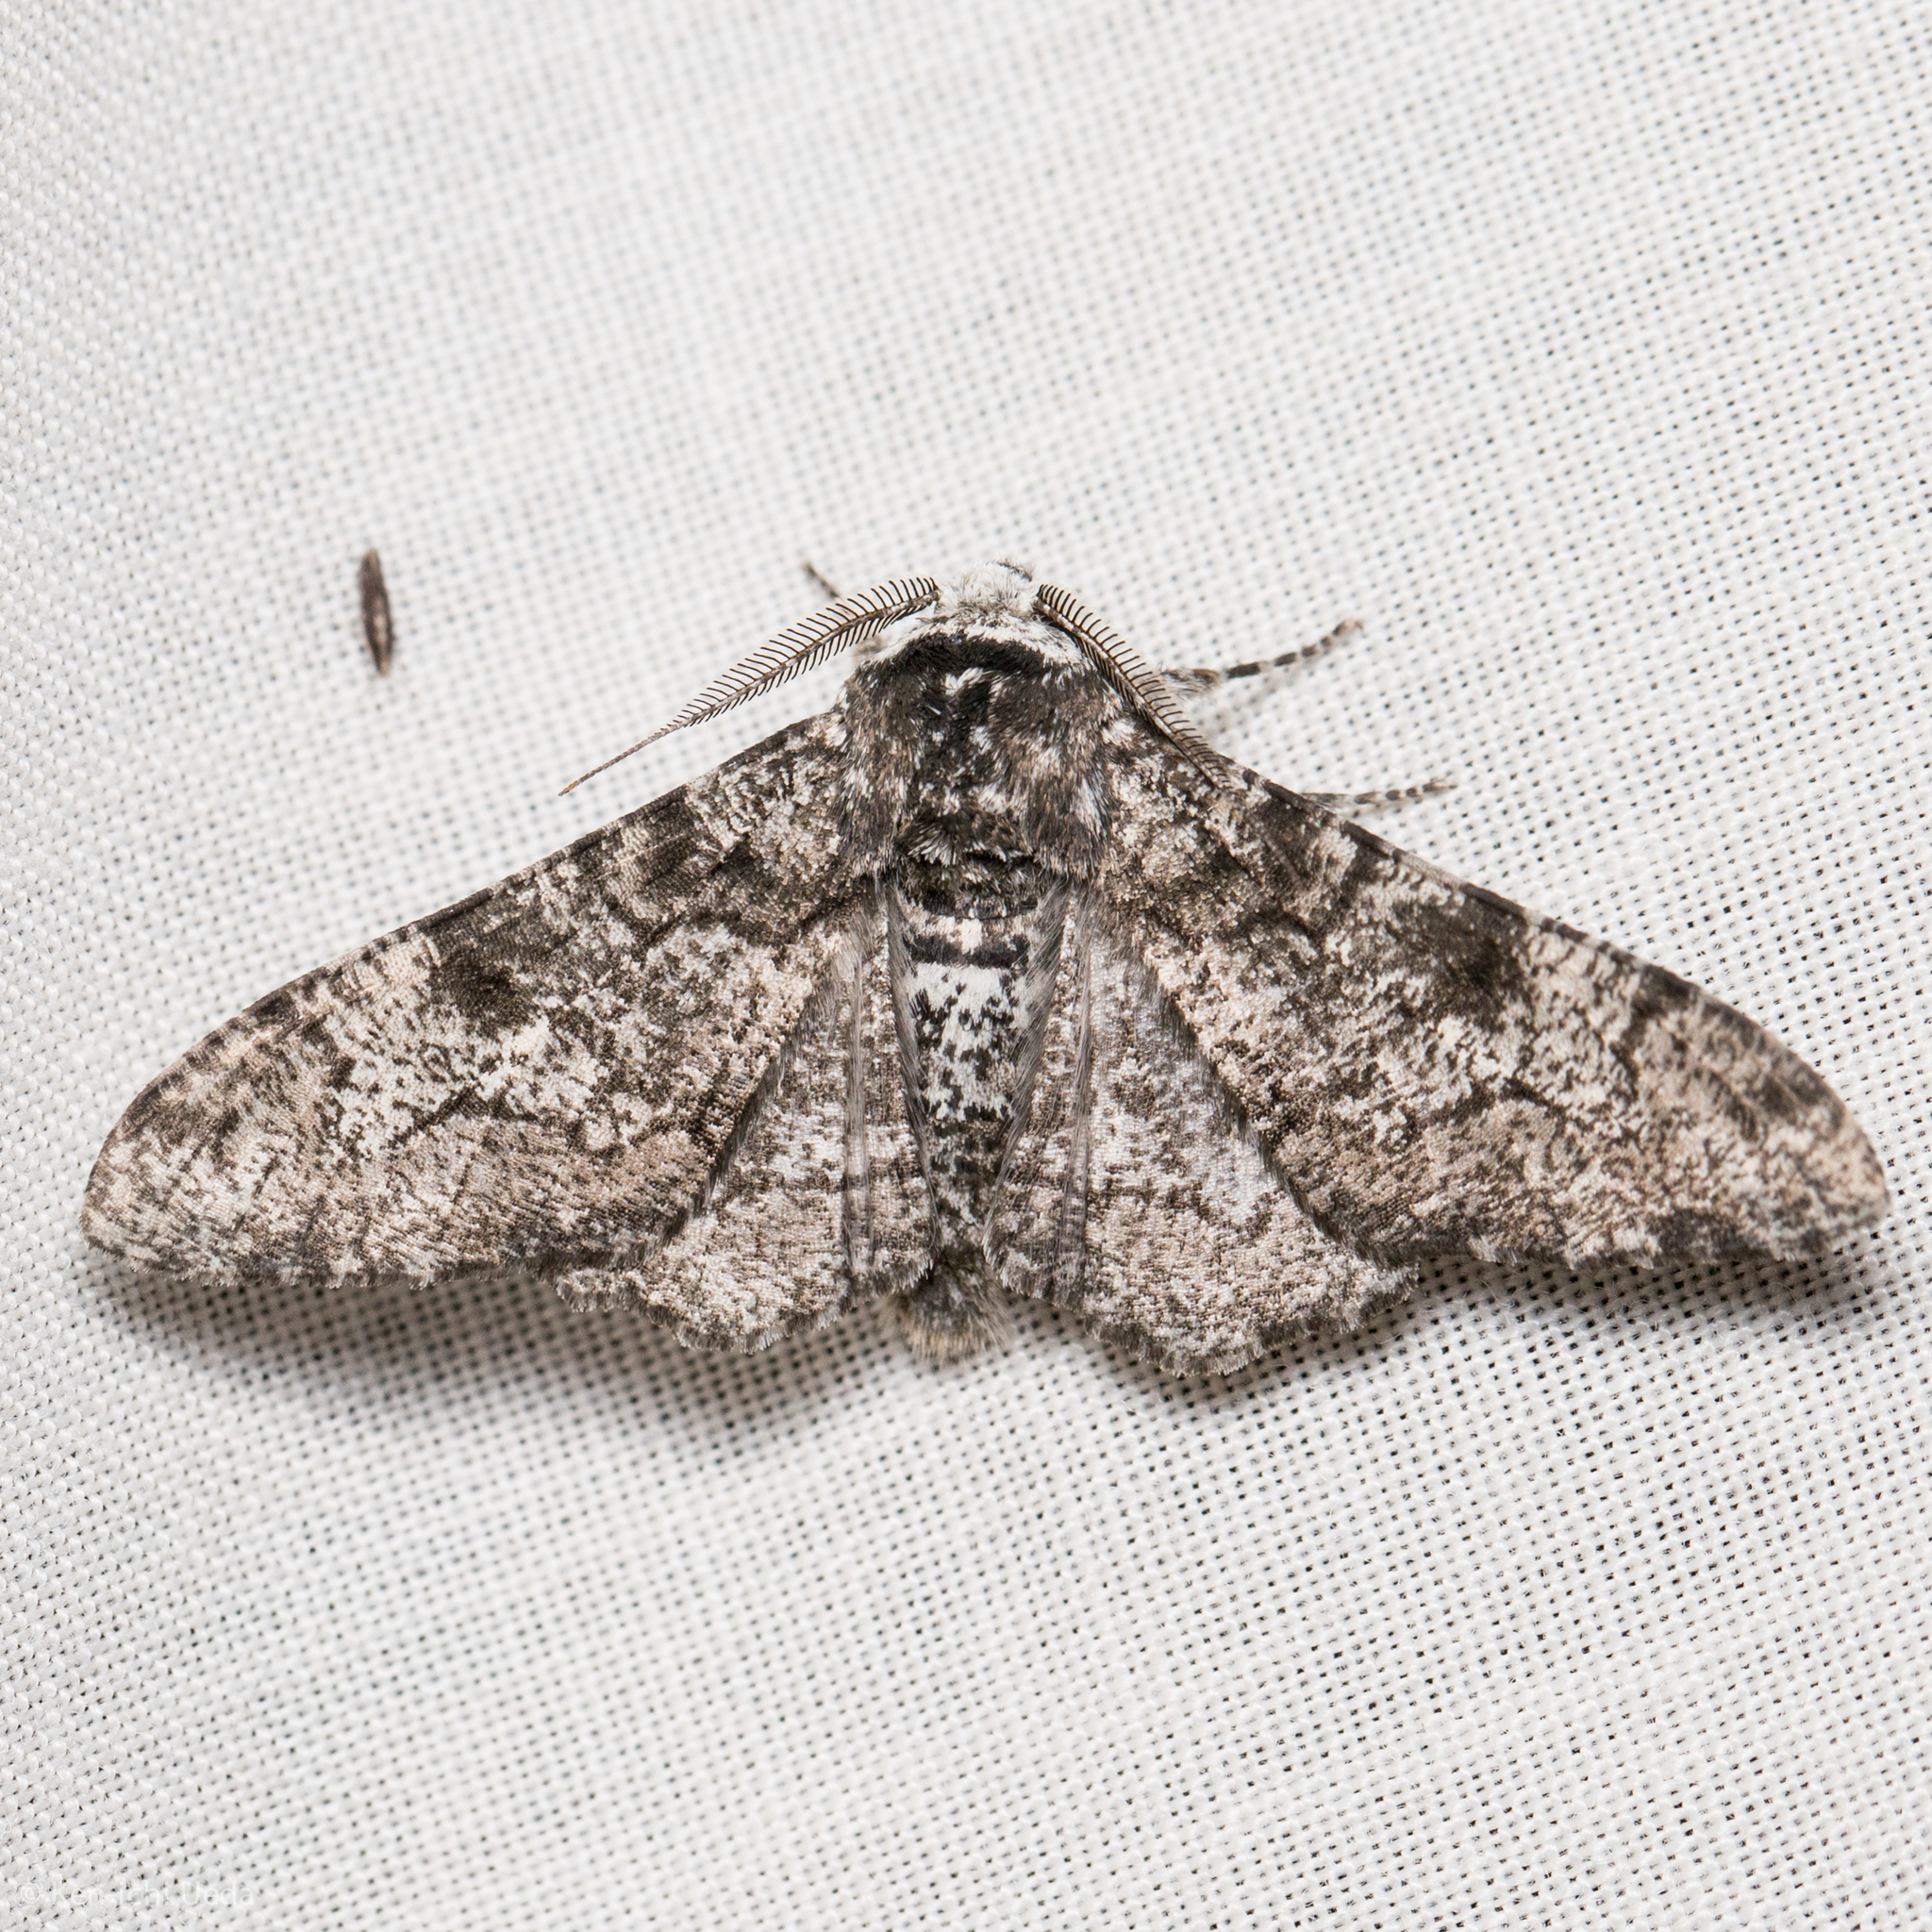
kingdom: Animalia
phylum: Arthropoda
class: Insecta
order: Lepidoptera
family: Geometridae
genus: Biston
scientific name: Biston betularia
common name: Peppered moth
